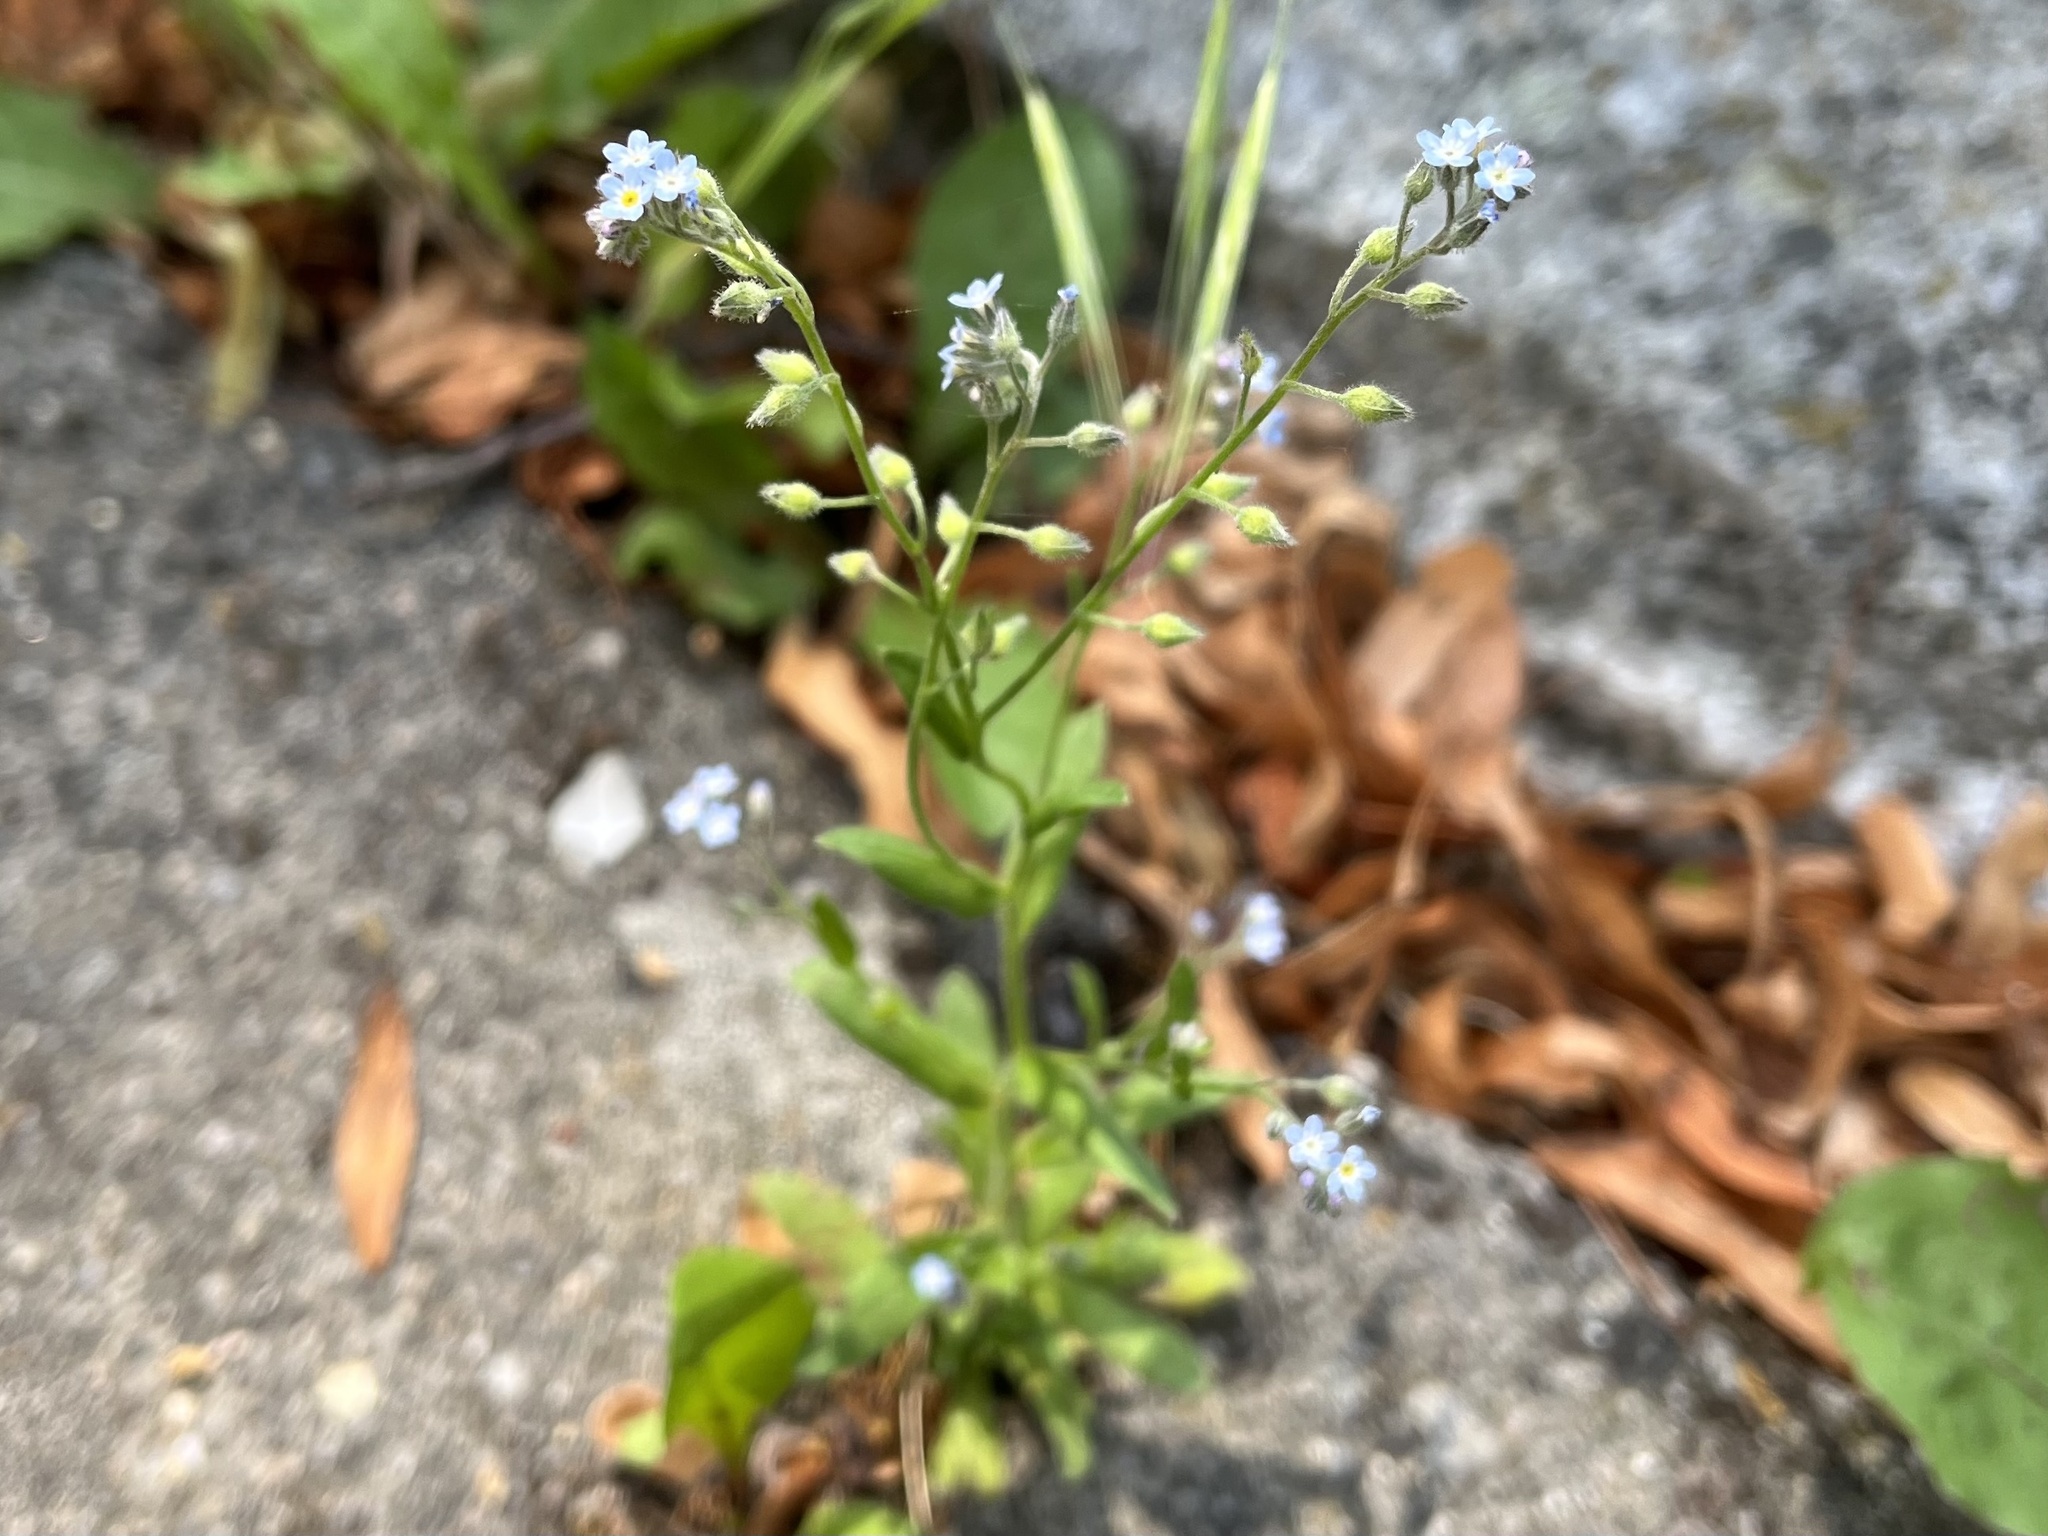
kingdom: Plantae
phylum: Tracheophyta
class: Magnoliopsida
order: Boraginales
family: Boraginaceae
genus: Myosotis
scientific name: Myosotis arvensis
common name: Field forget-me-not
